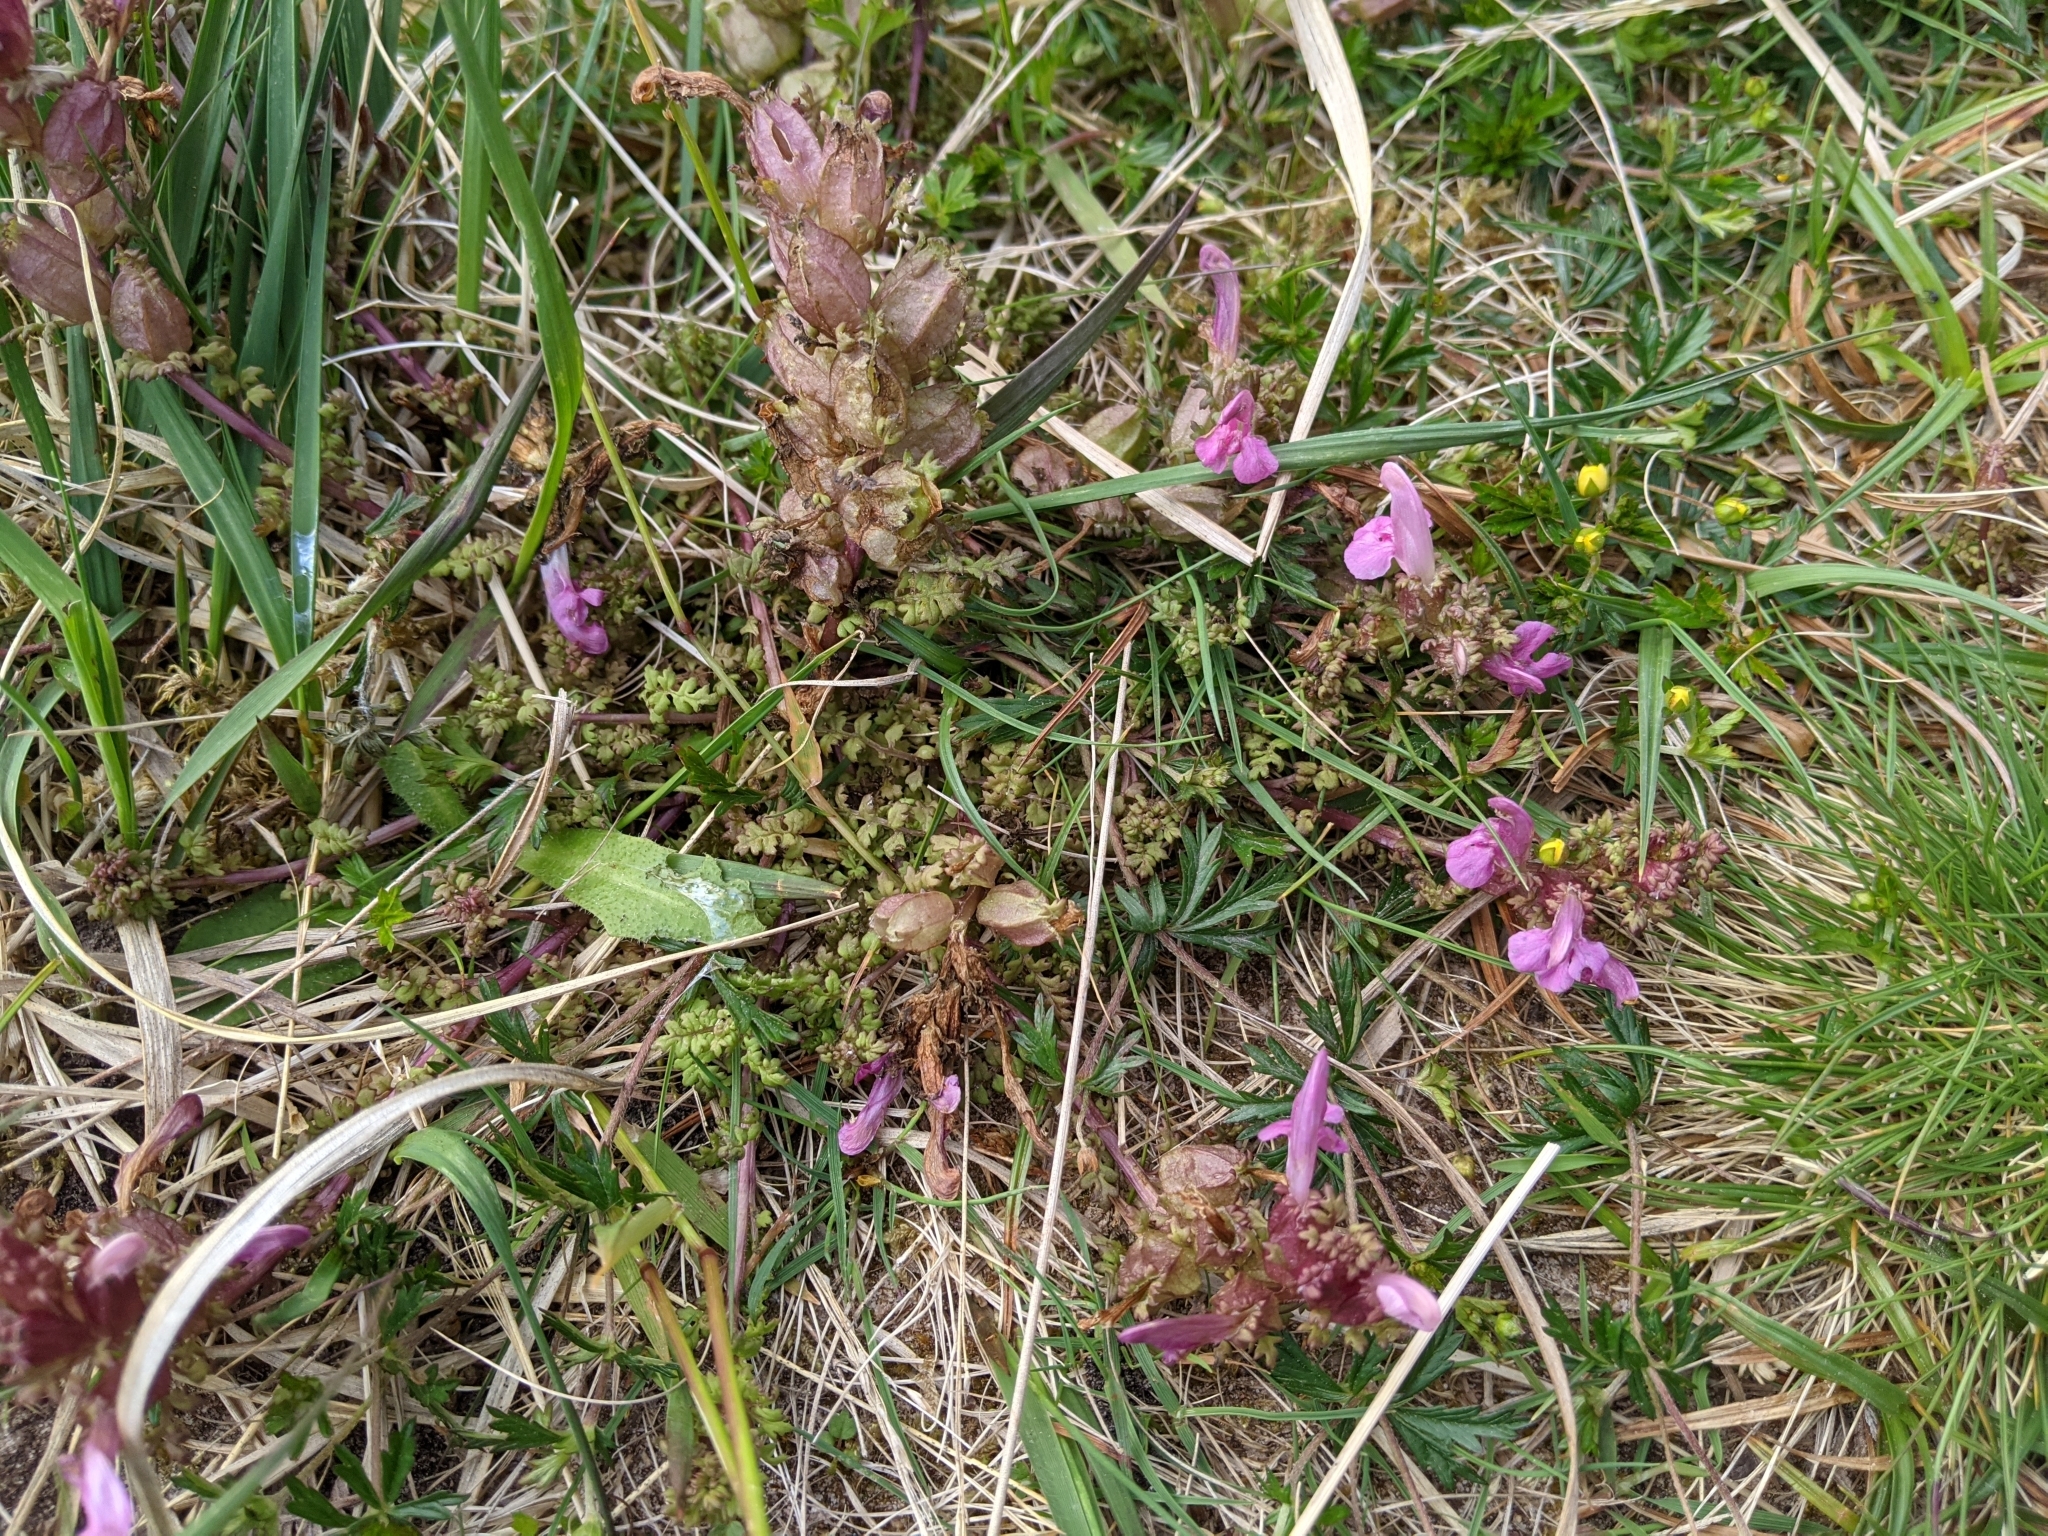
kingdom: Plantae
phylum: Tracheophyta
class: Magnoliopsida
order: Lamiales
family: Orobanchaceae
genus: Pedicularis
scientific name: Pedicularis sylvatica
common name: Lousewort
